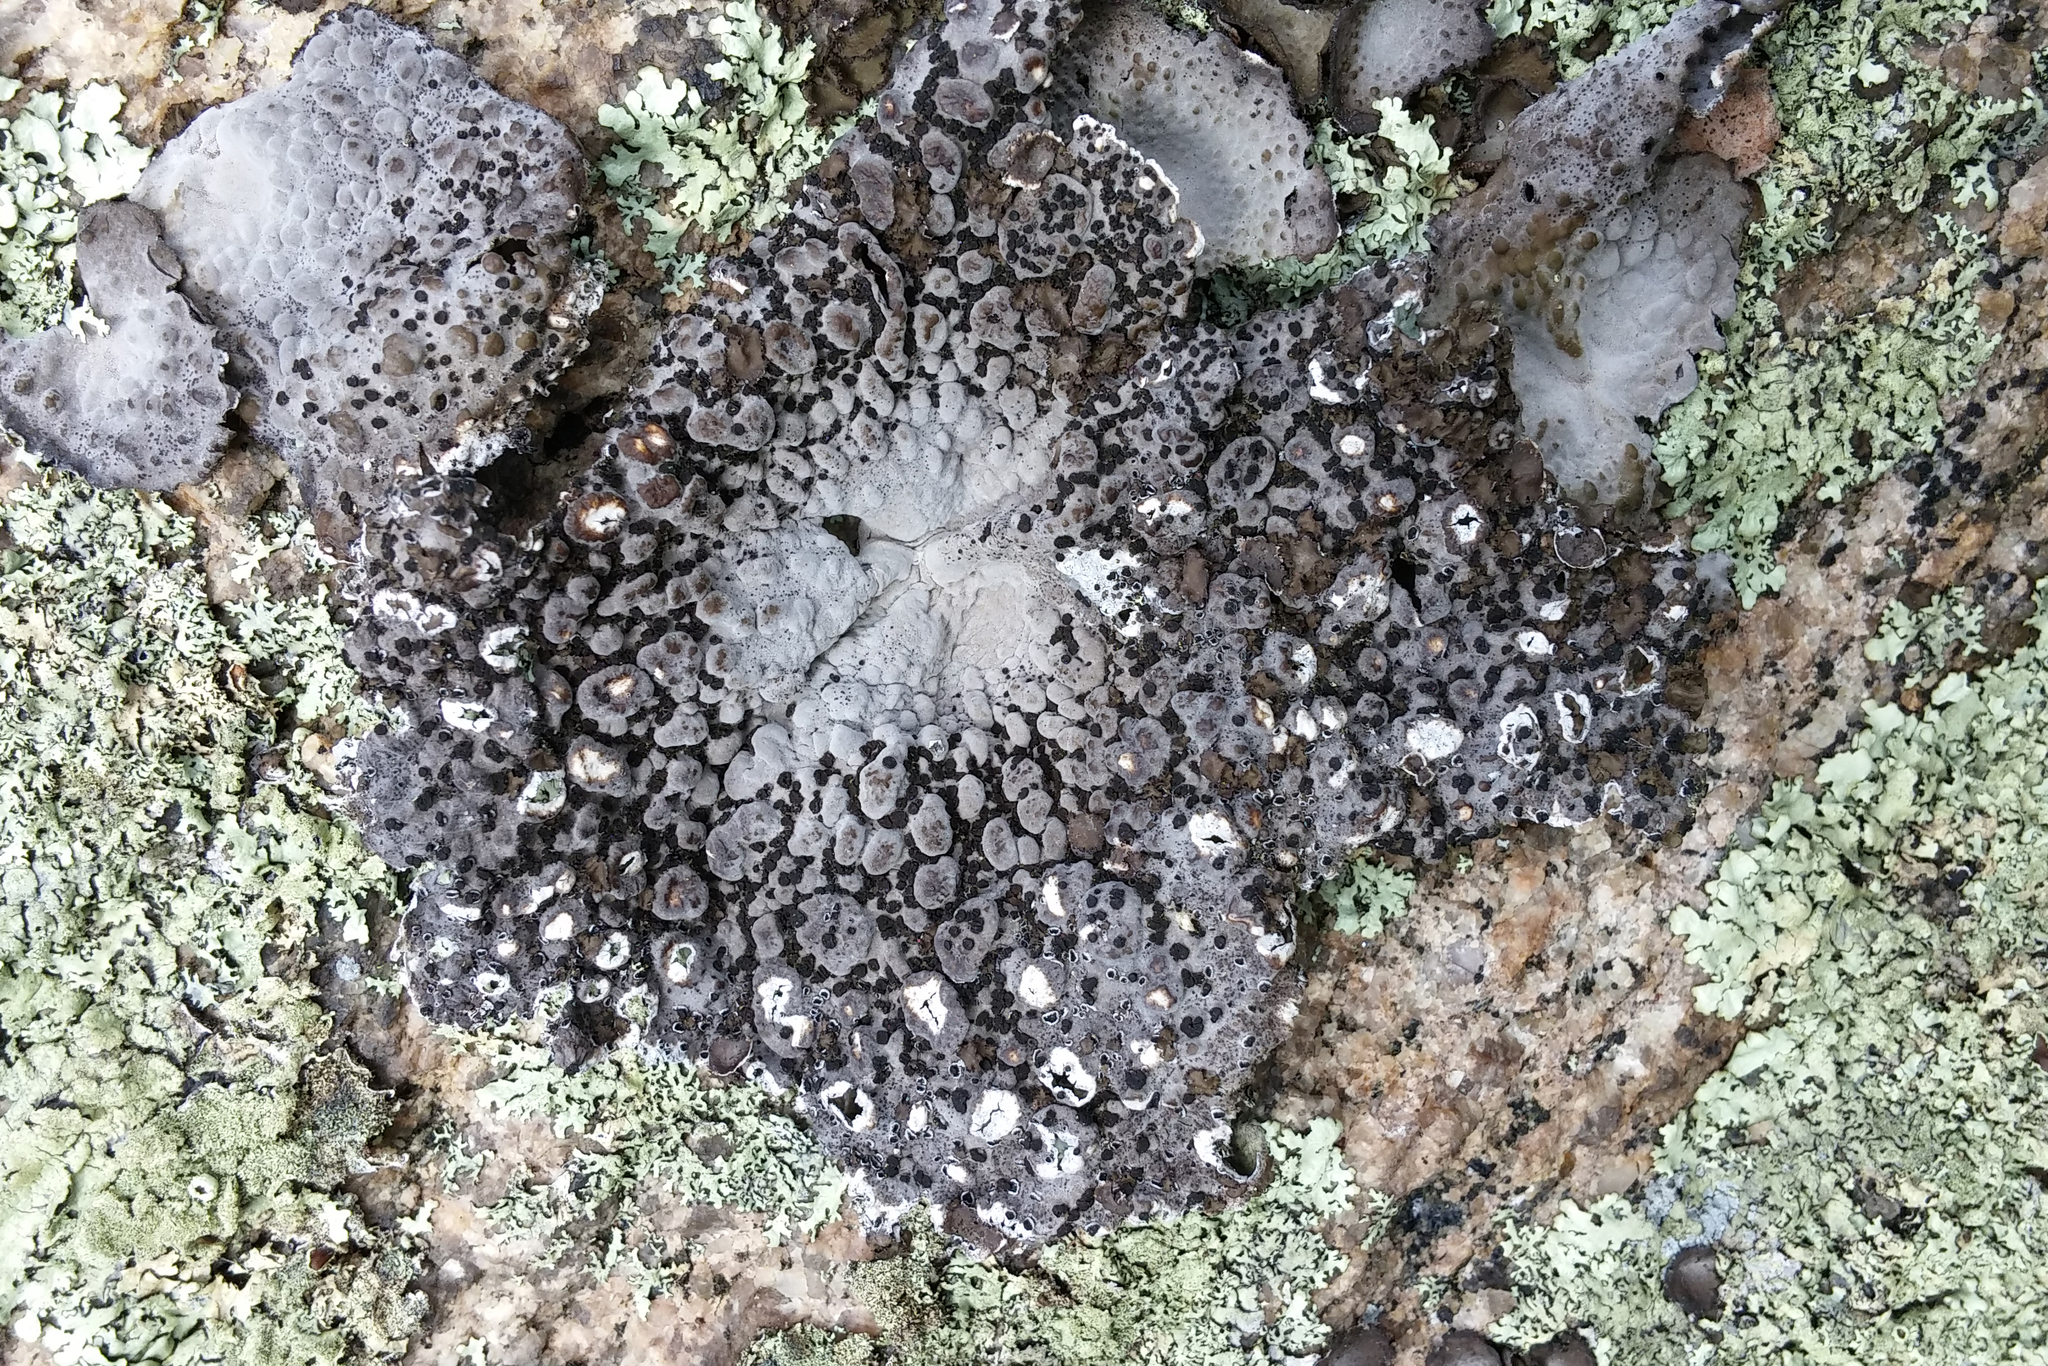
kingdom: Fungi
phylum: Ascomycota
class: Lecanoromycetes
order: Umbilicariales
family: Umbilicariaceae
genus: Lasallia
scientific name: Lasallia papulosa
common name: Common toadskin lichen
